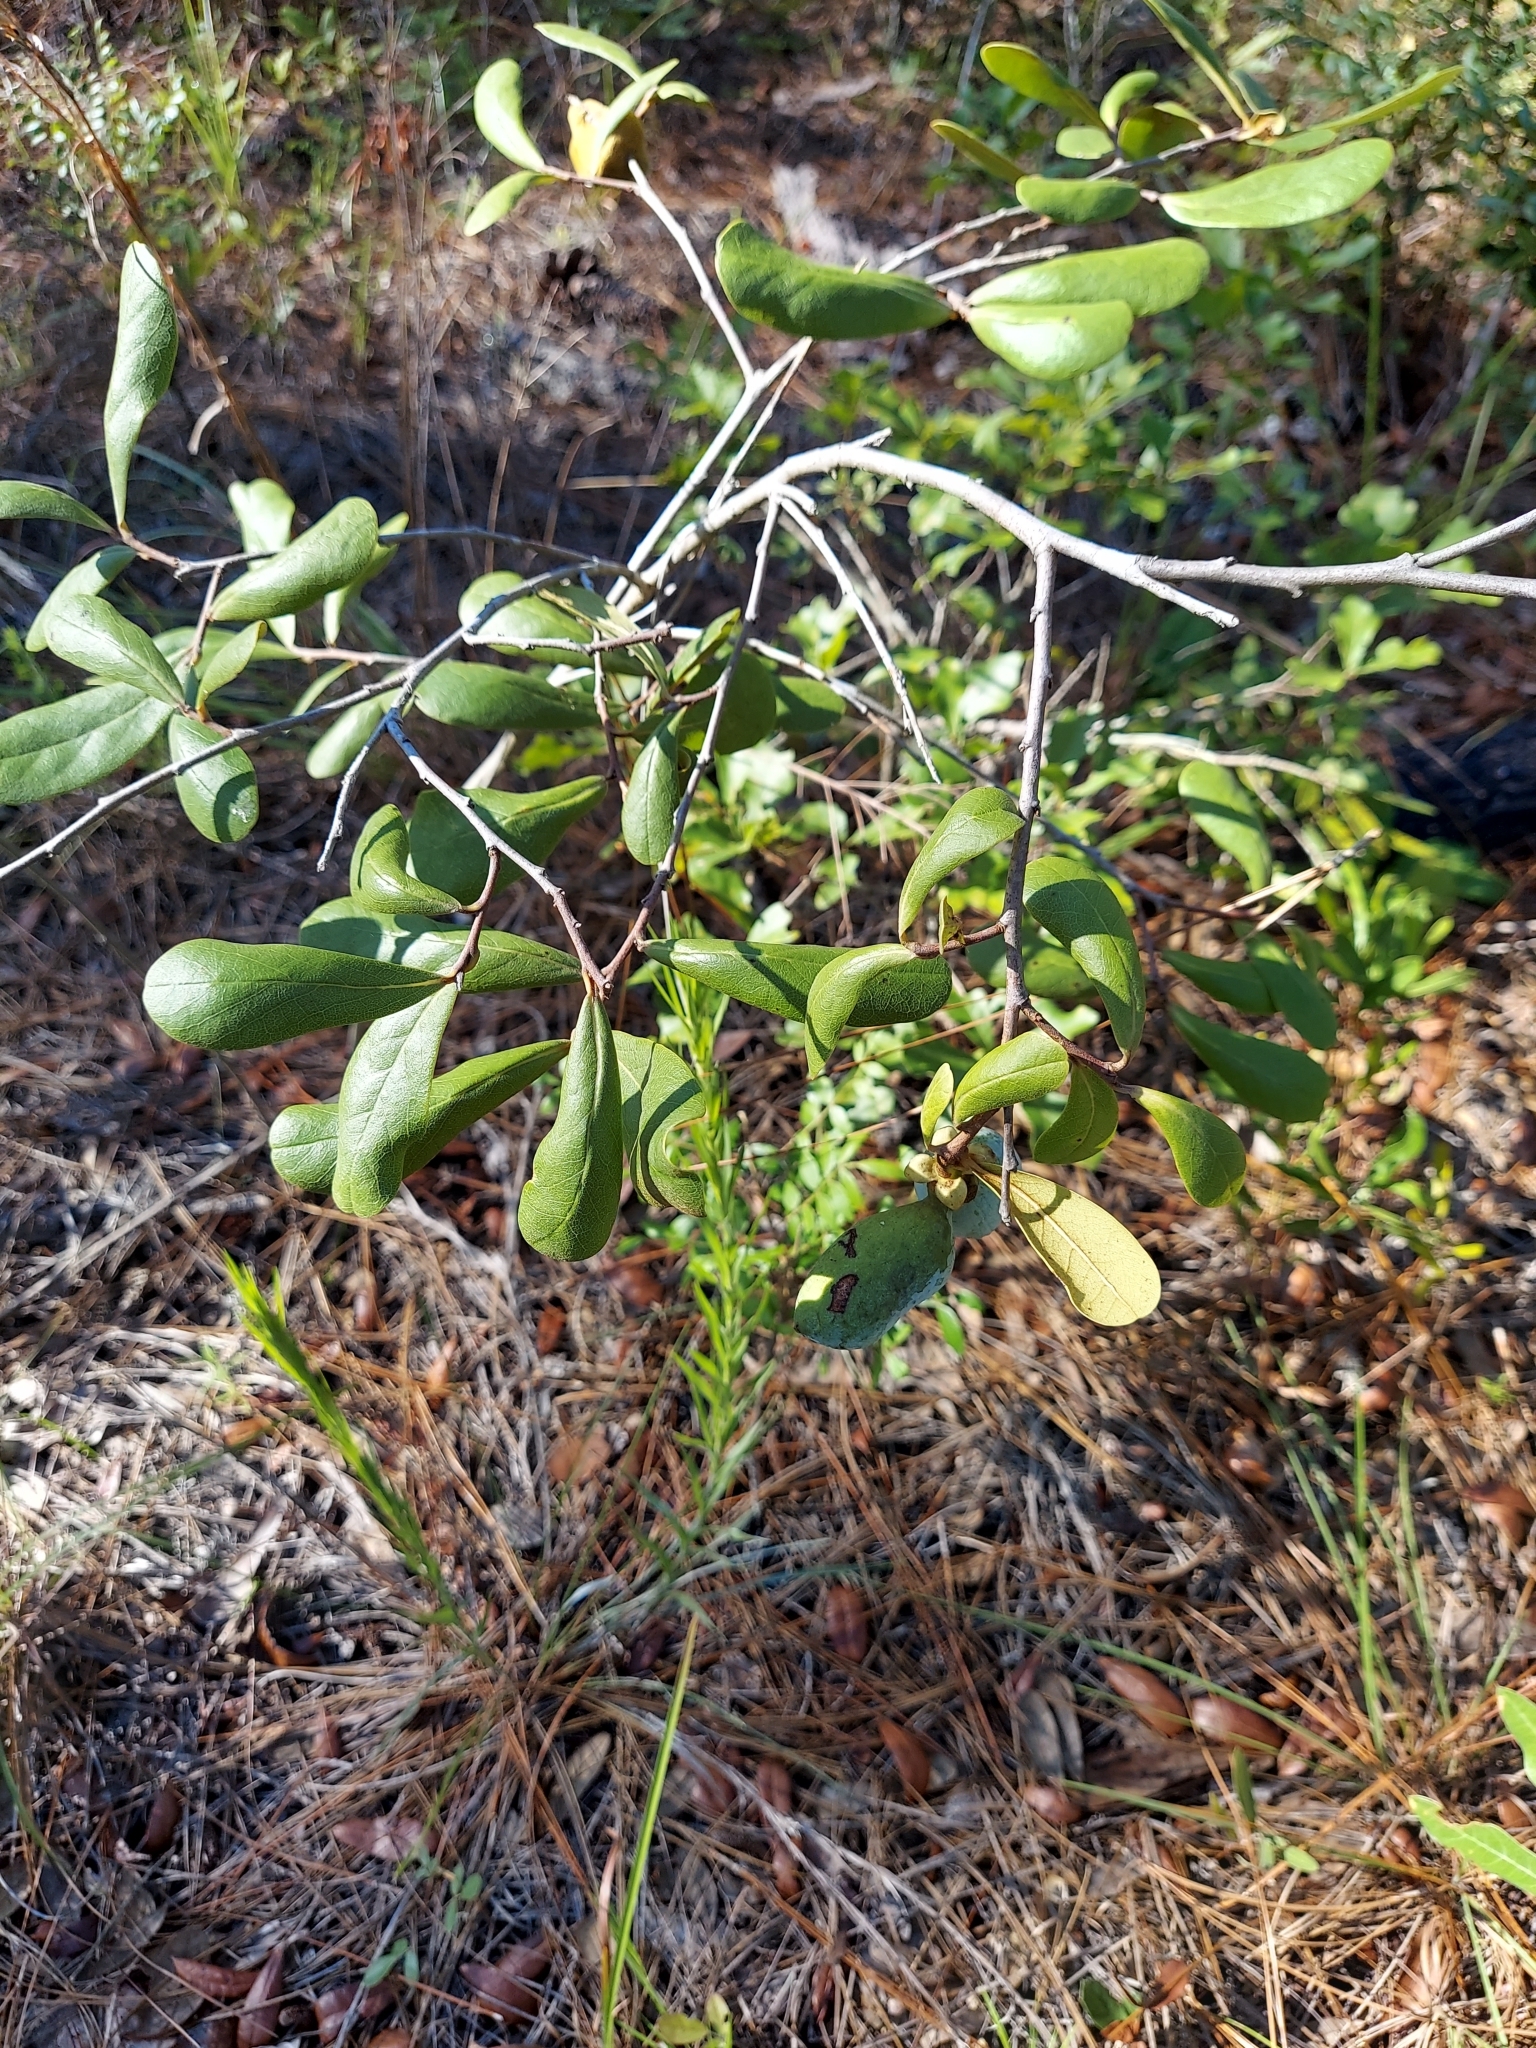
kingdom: Plantae
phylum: Tracheophyta
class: Magnoliopsida
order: Magnoliales
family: Annonaceae
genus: Asimina
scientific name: Asimina obovata
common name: Flag pawpaw
